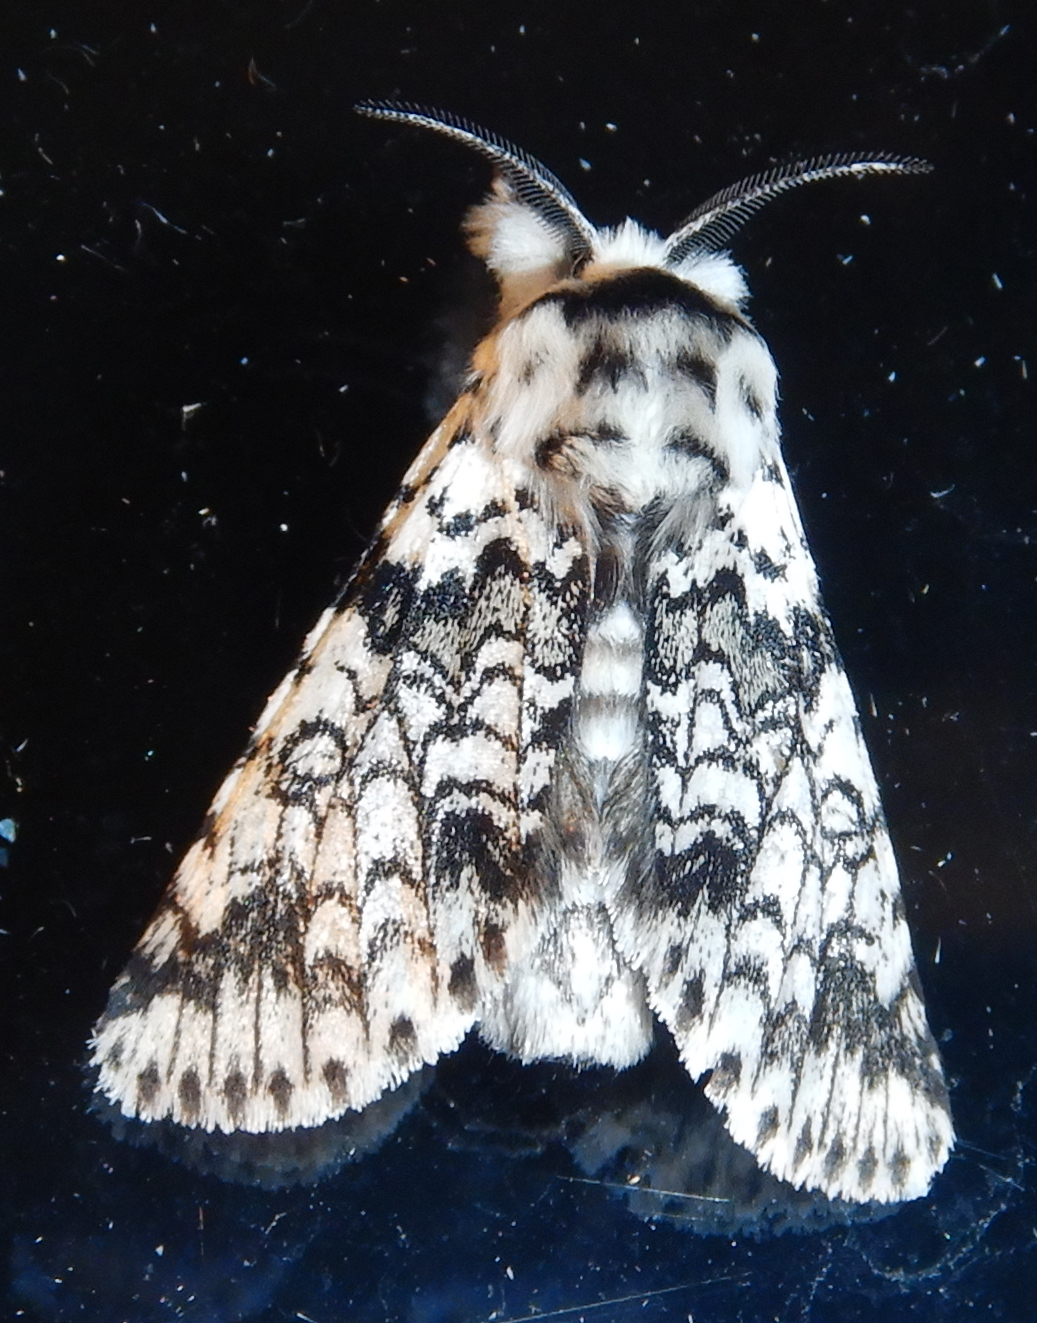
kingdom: Animalia
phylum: Arthropoda
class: Insecta
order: Lepidoptera
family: Notodontidae
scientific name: Notodontidae
